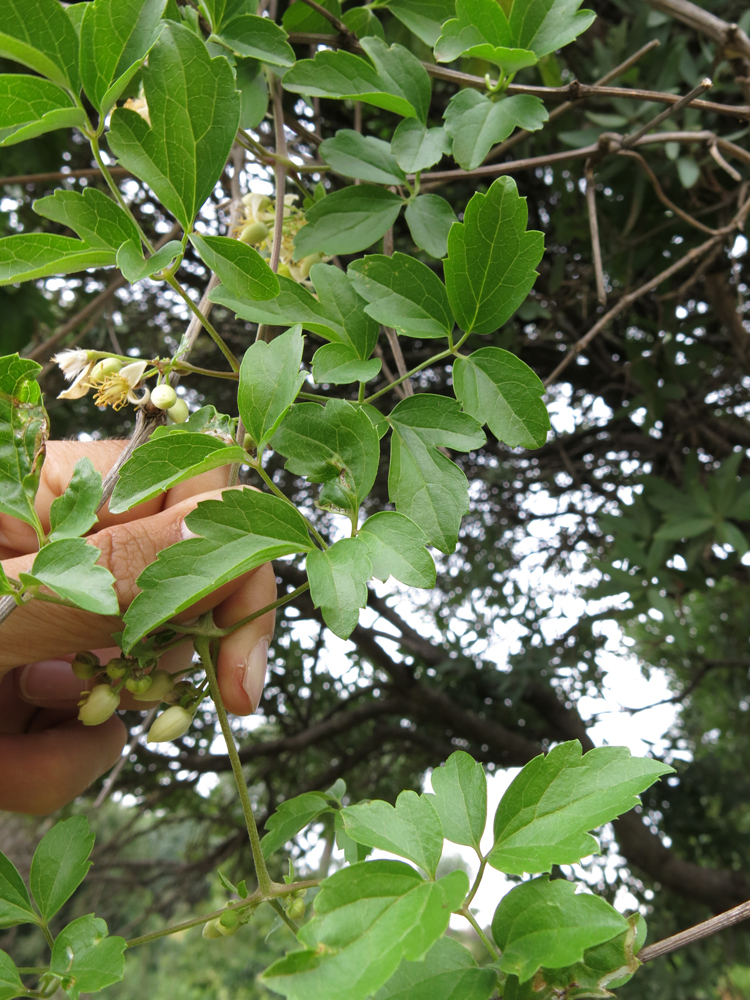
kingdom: Plantae
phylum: Tracheophyta
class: Magnoliopsida
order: Ranunculales
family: Ranunculaceae
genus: Clematis
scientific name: Clematis brachiata
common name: Traveler's-joy
